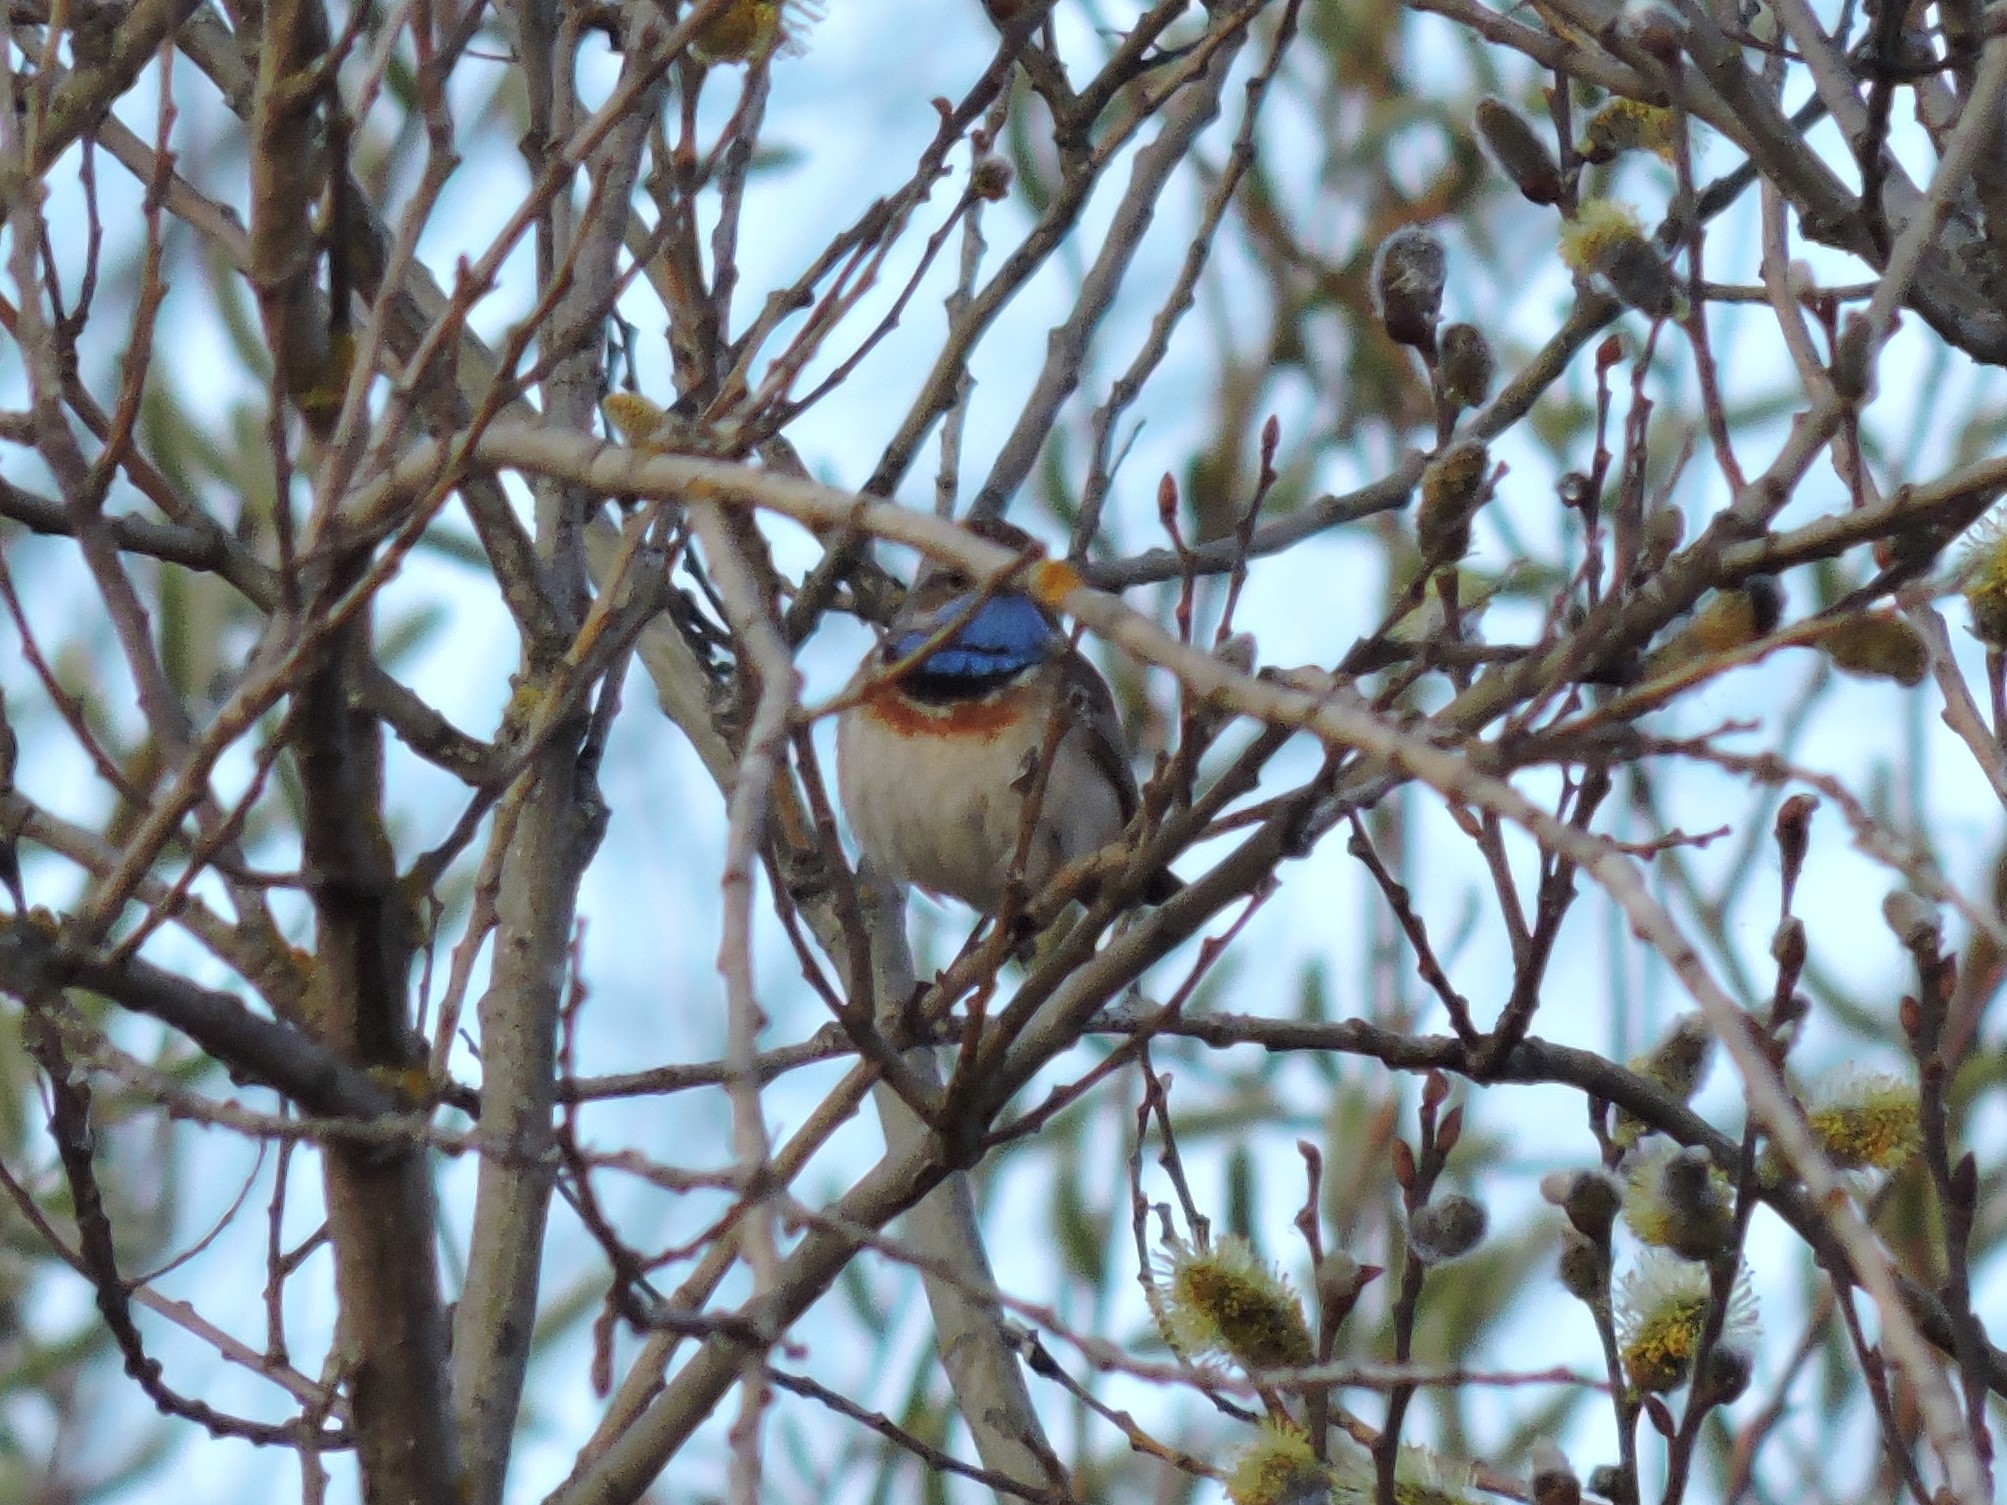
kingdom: Animalia
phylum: Chordata
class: Aves
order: Passeriformes
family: Muscicapidae
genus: Luscinia
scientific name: Luscinia svecica
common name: Bluethroat
